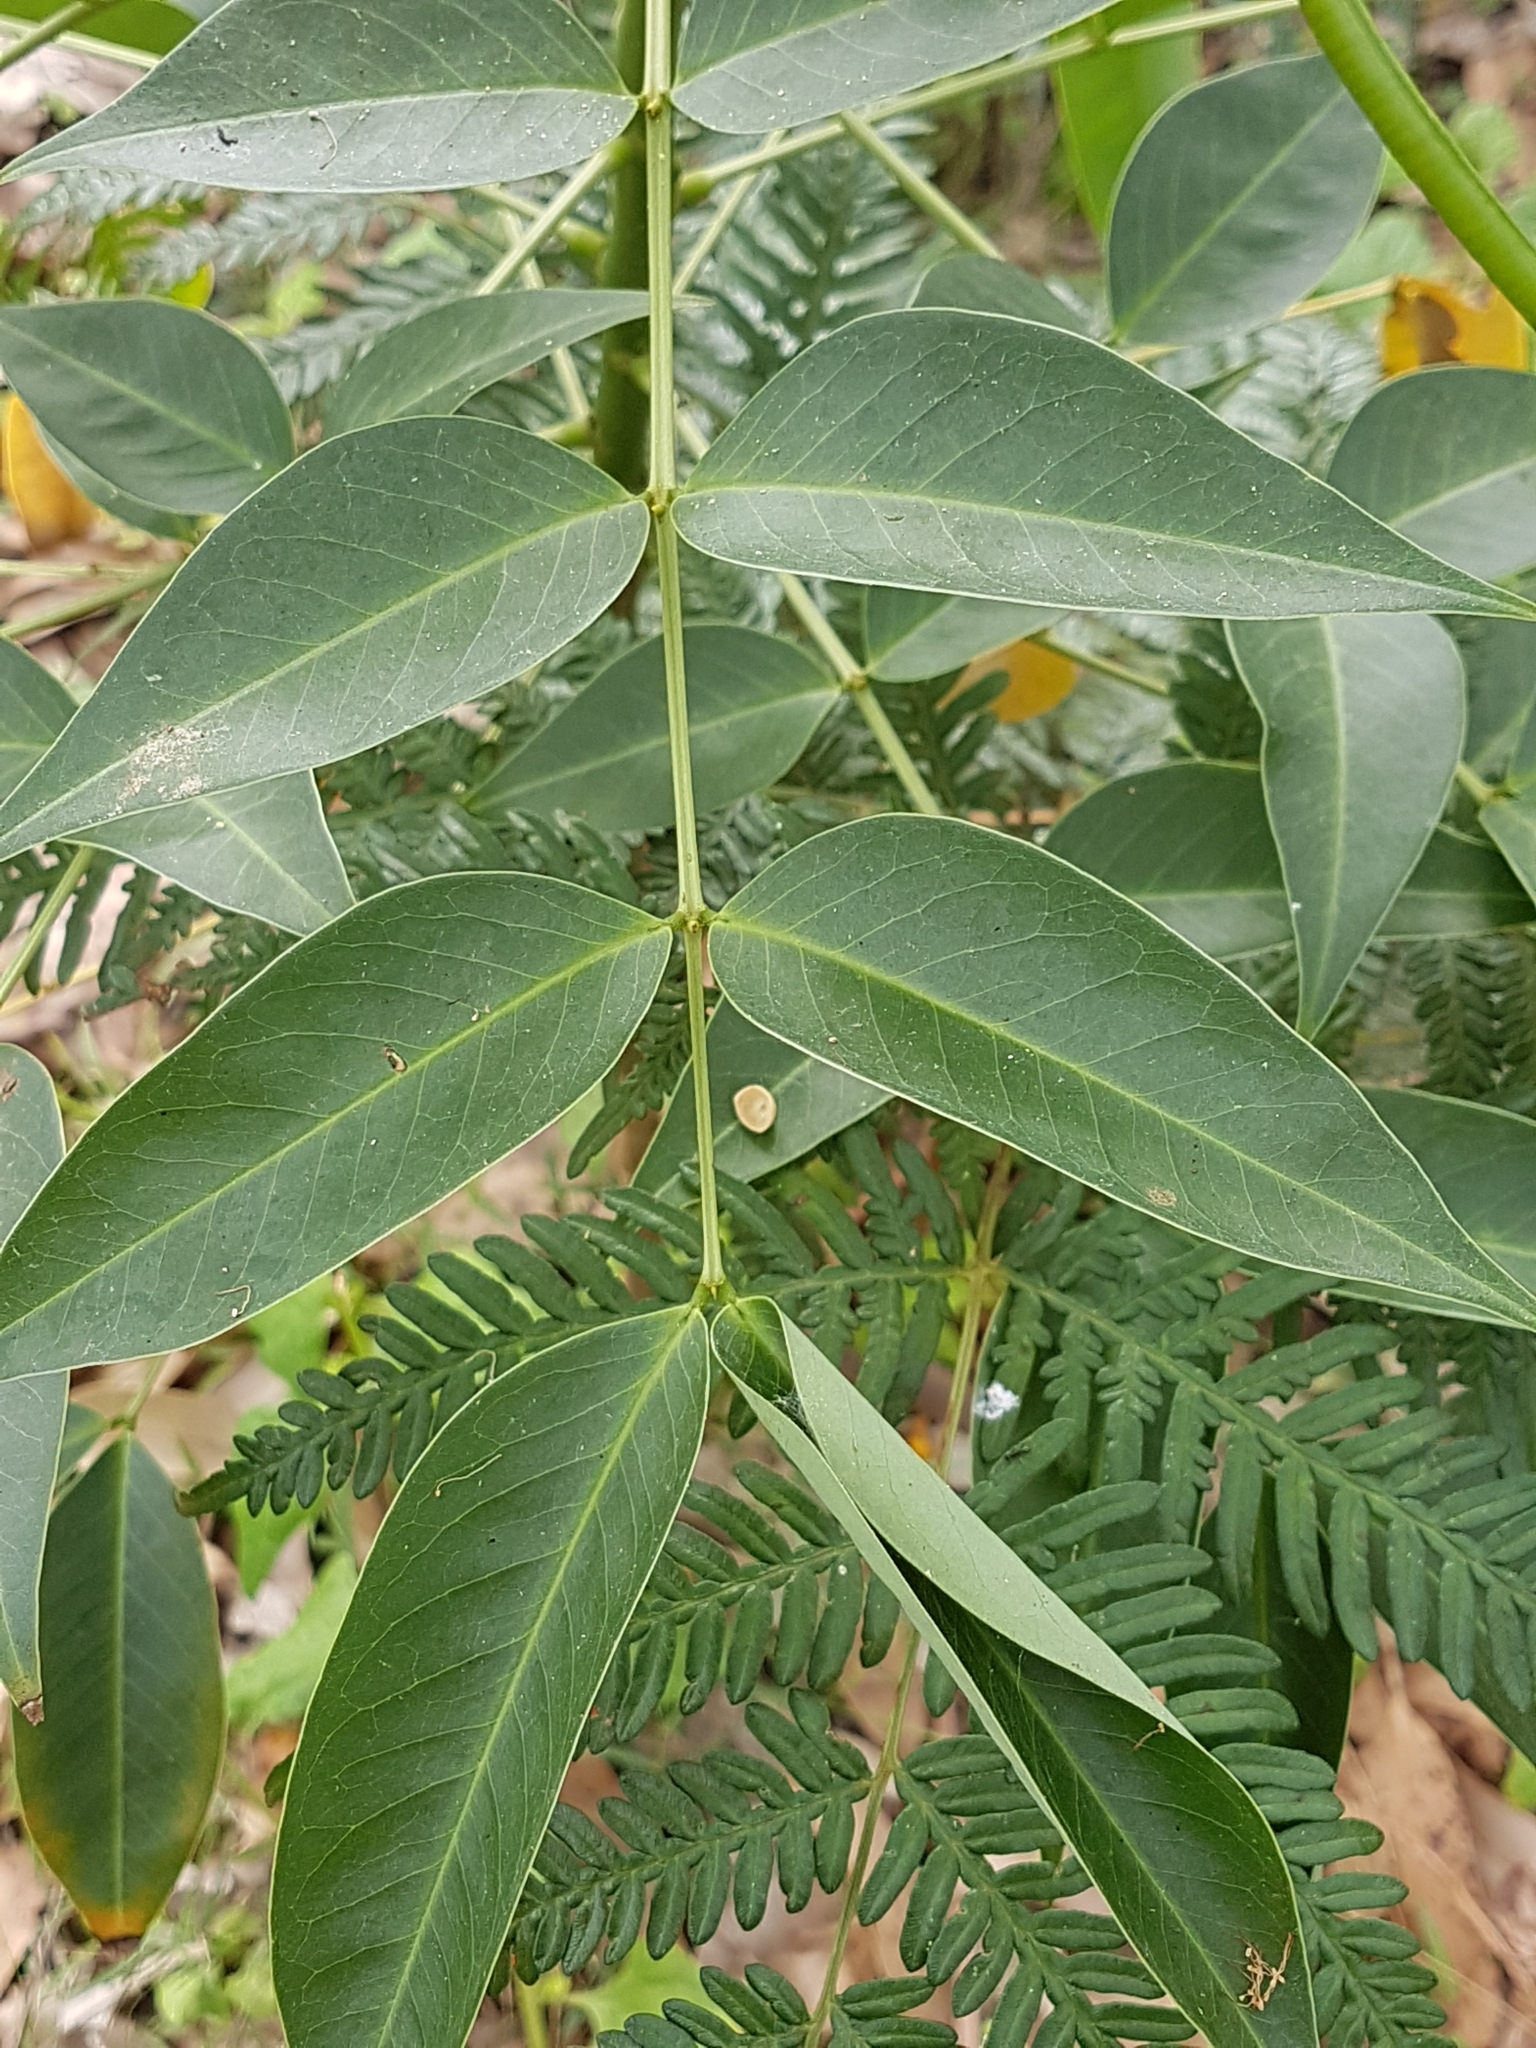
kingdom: Plantae
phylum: Tracheophyta
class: Magnoliopsida
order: Fabales
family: Fabaceae
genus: Senna
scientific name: Senna septemtrionalis
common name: Arsenic bush
